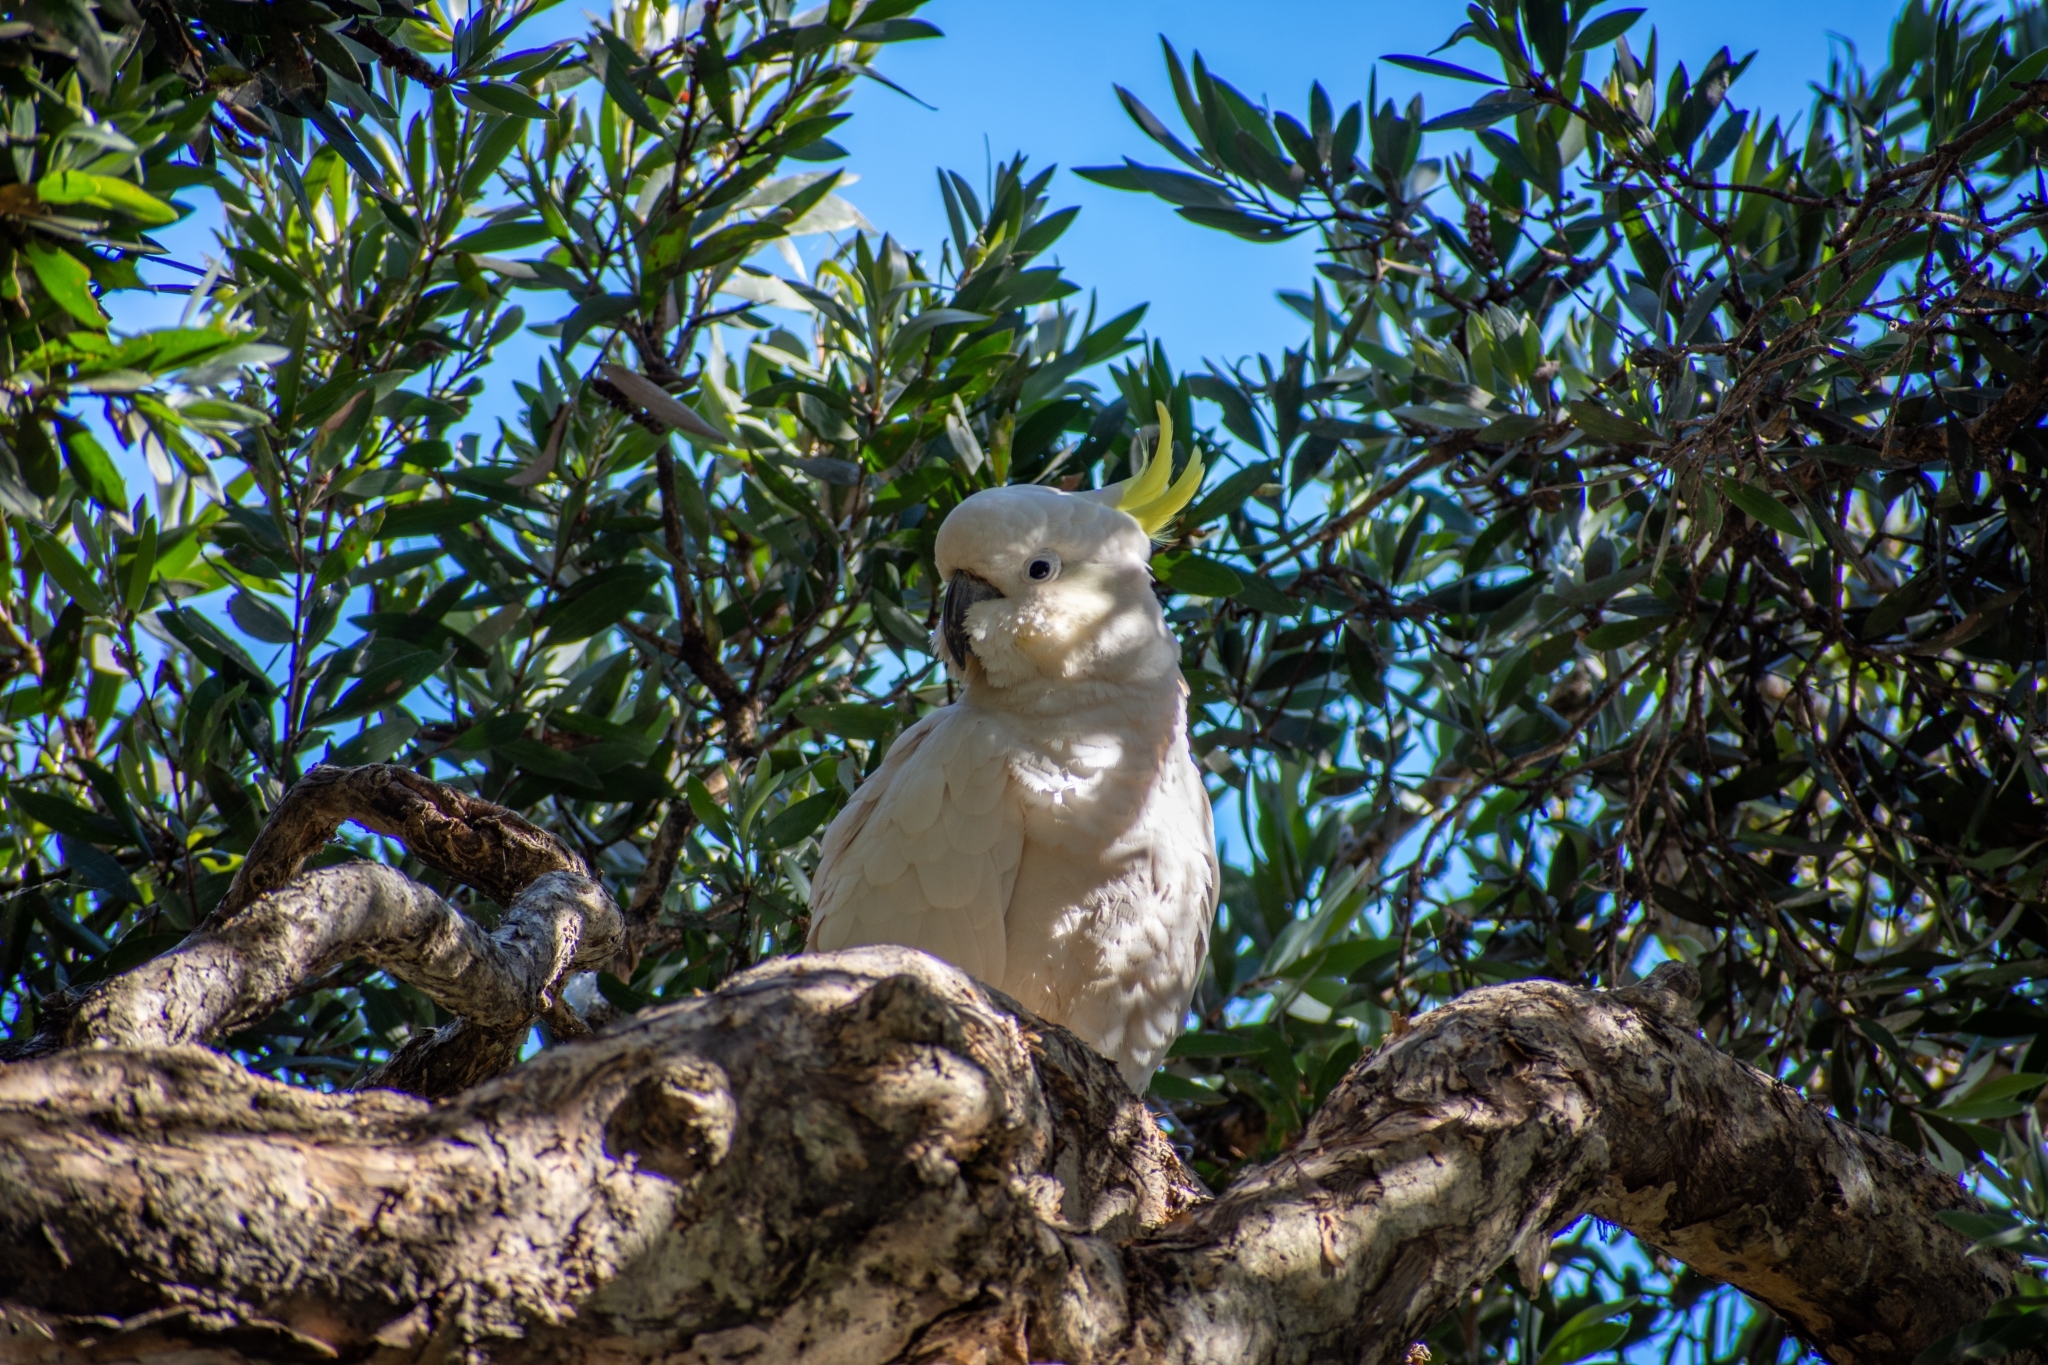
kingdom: Animalia
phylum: Chordata
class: Aves
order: Psittaciformes
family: Psittacidae
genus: Cacatua
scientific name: Cacatua galerita
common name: Sulphur-crested cockatoo
